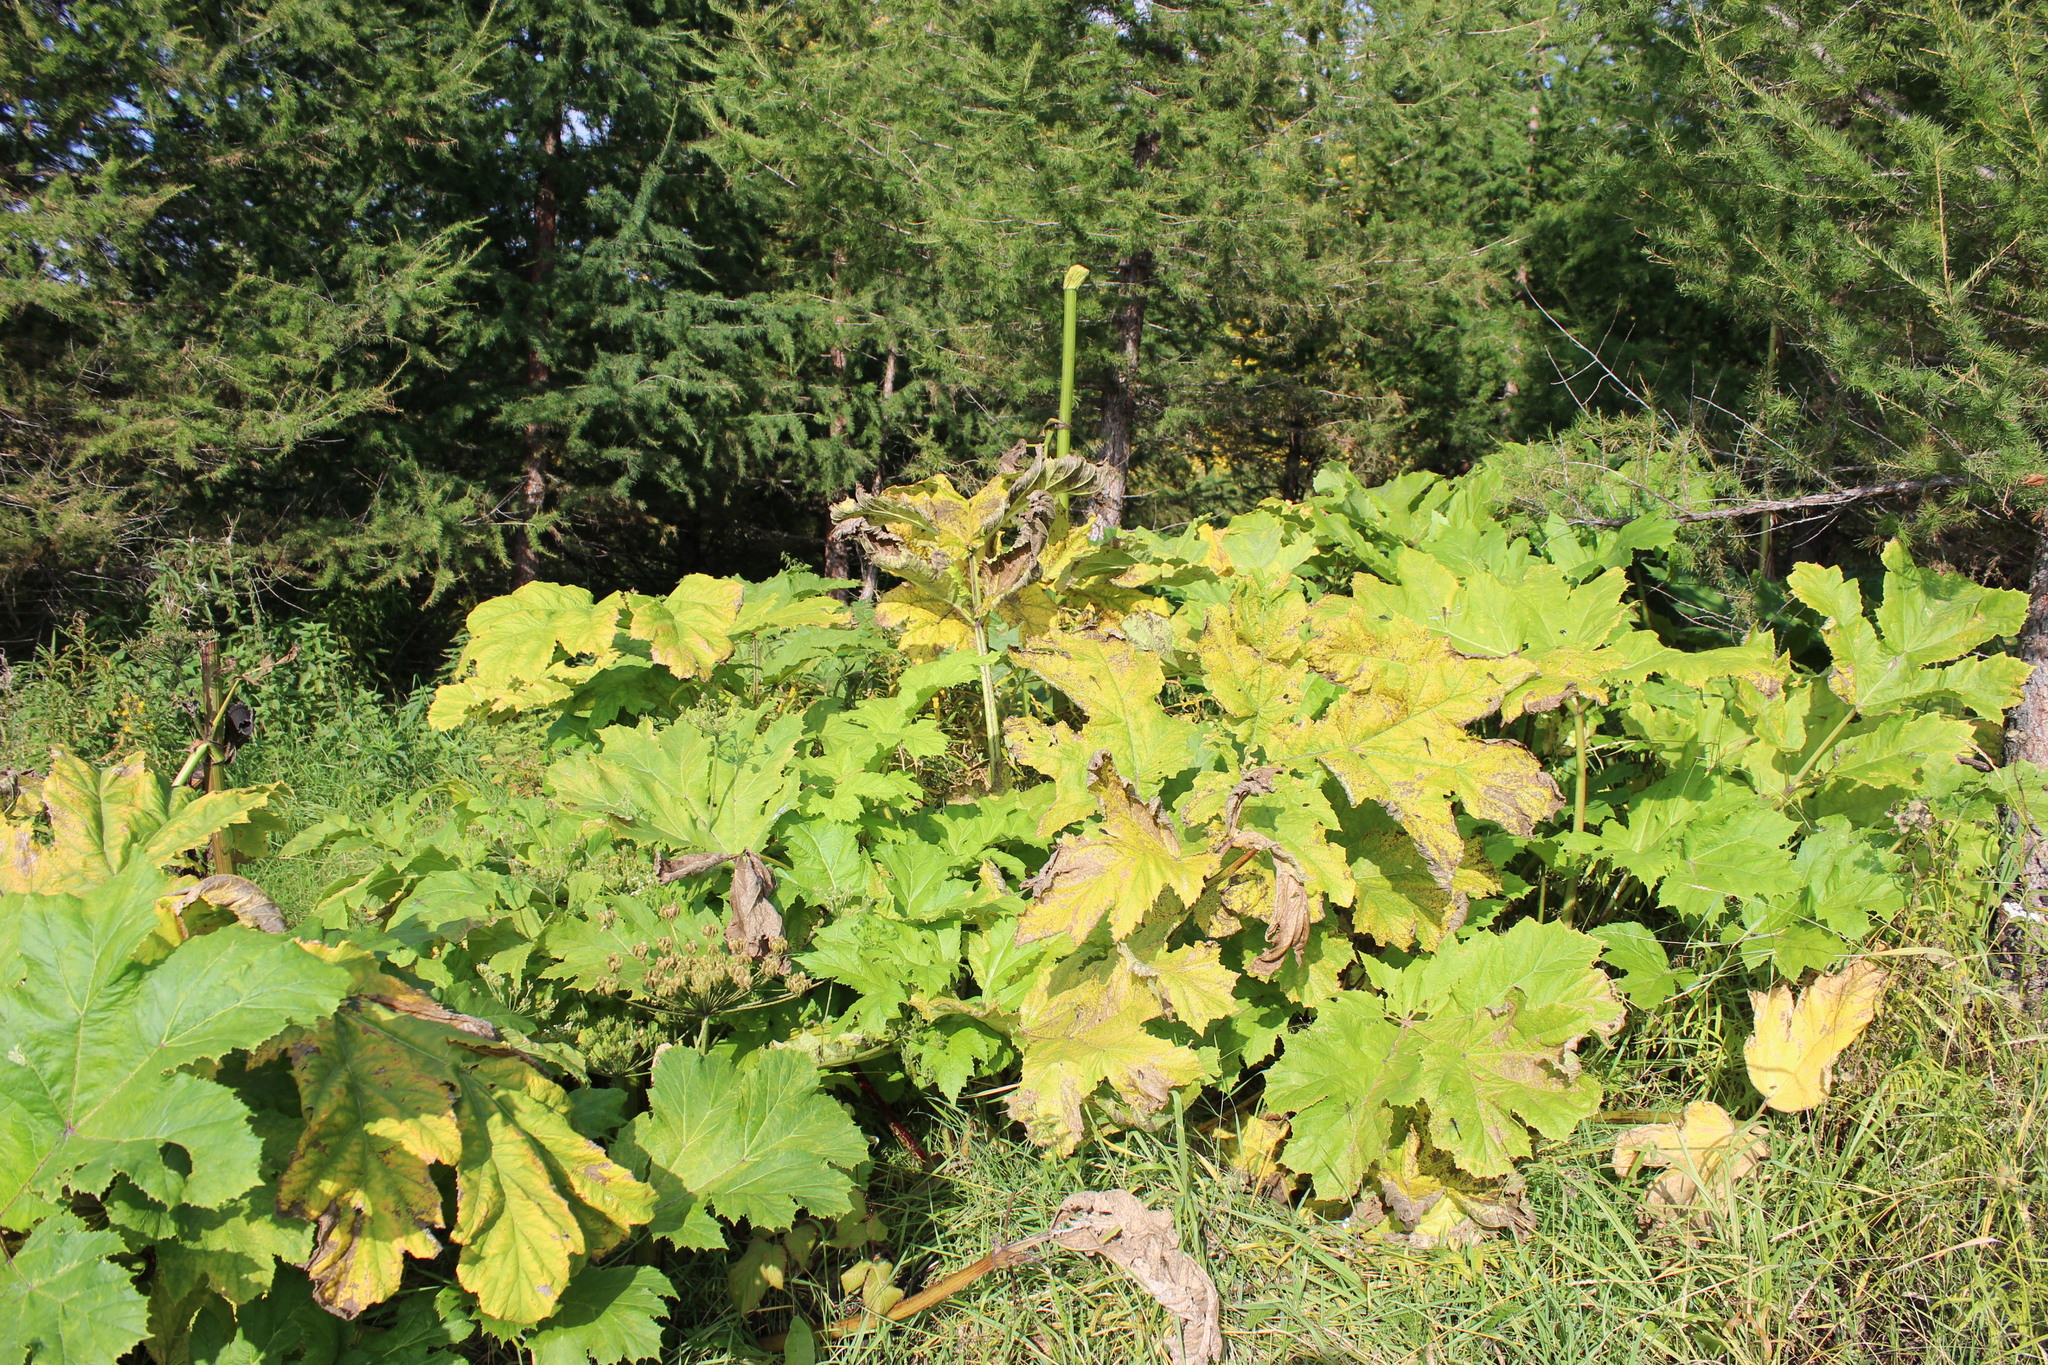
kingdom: Plantae
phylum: Tracheophyta
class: Magnoliopsida
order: Apiales
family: Apiaceae
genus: Heracleum
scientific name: Heracleum sosnowskyi
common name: Sosnowsky's hogweed
